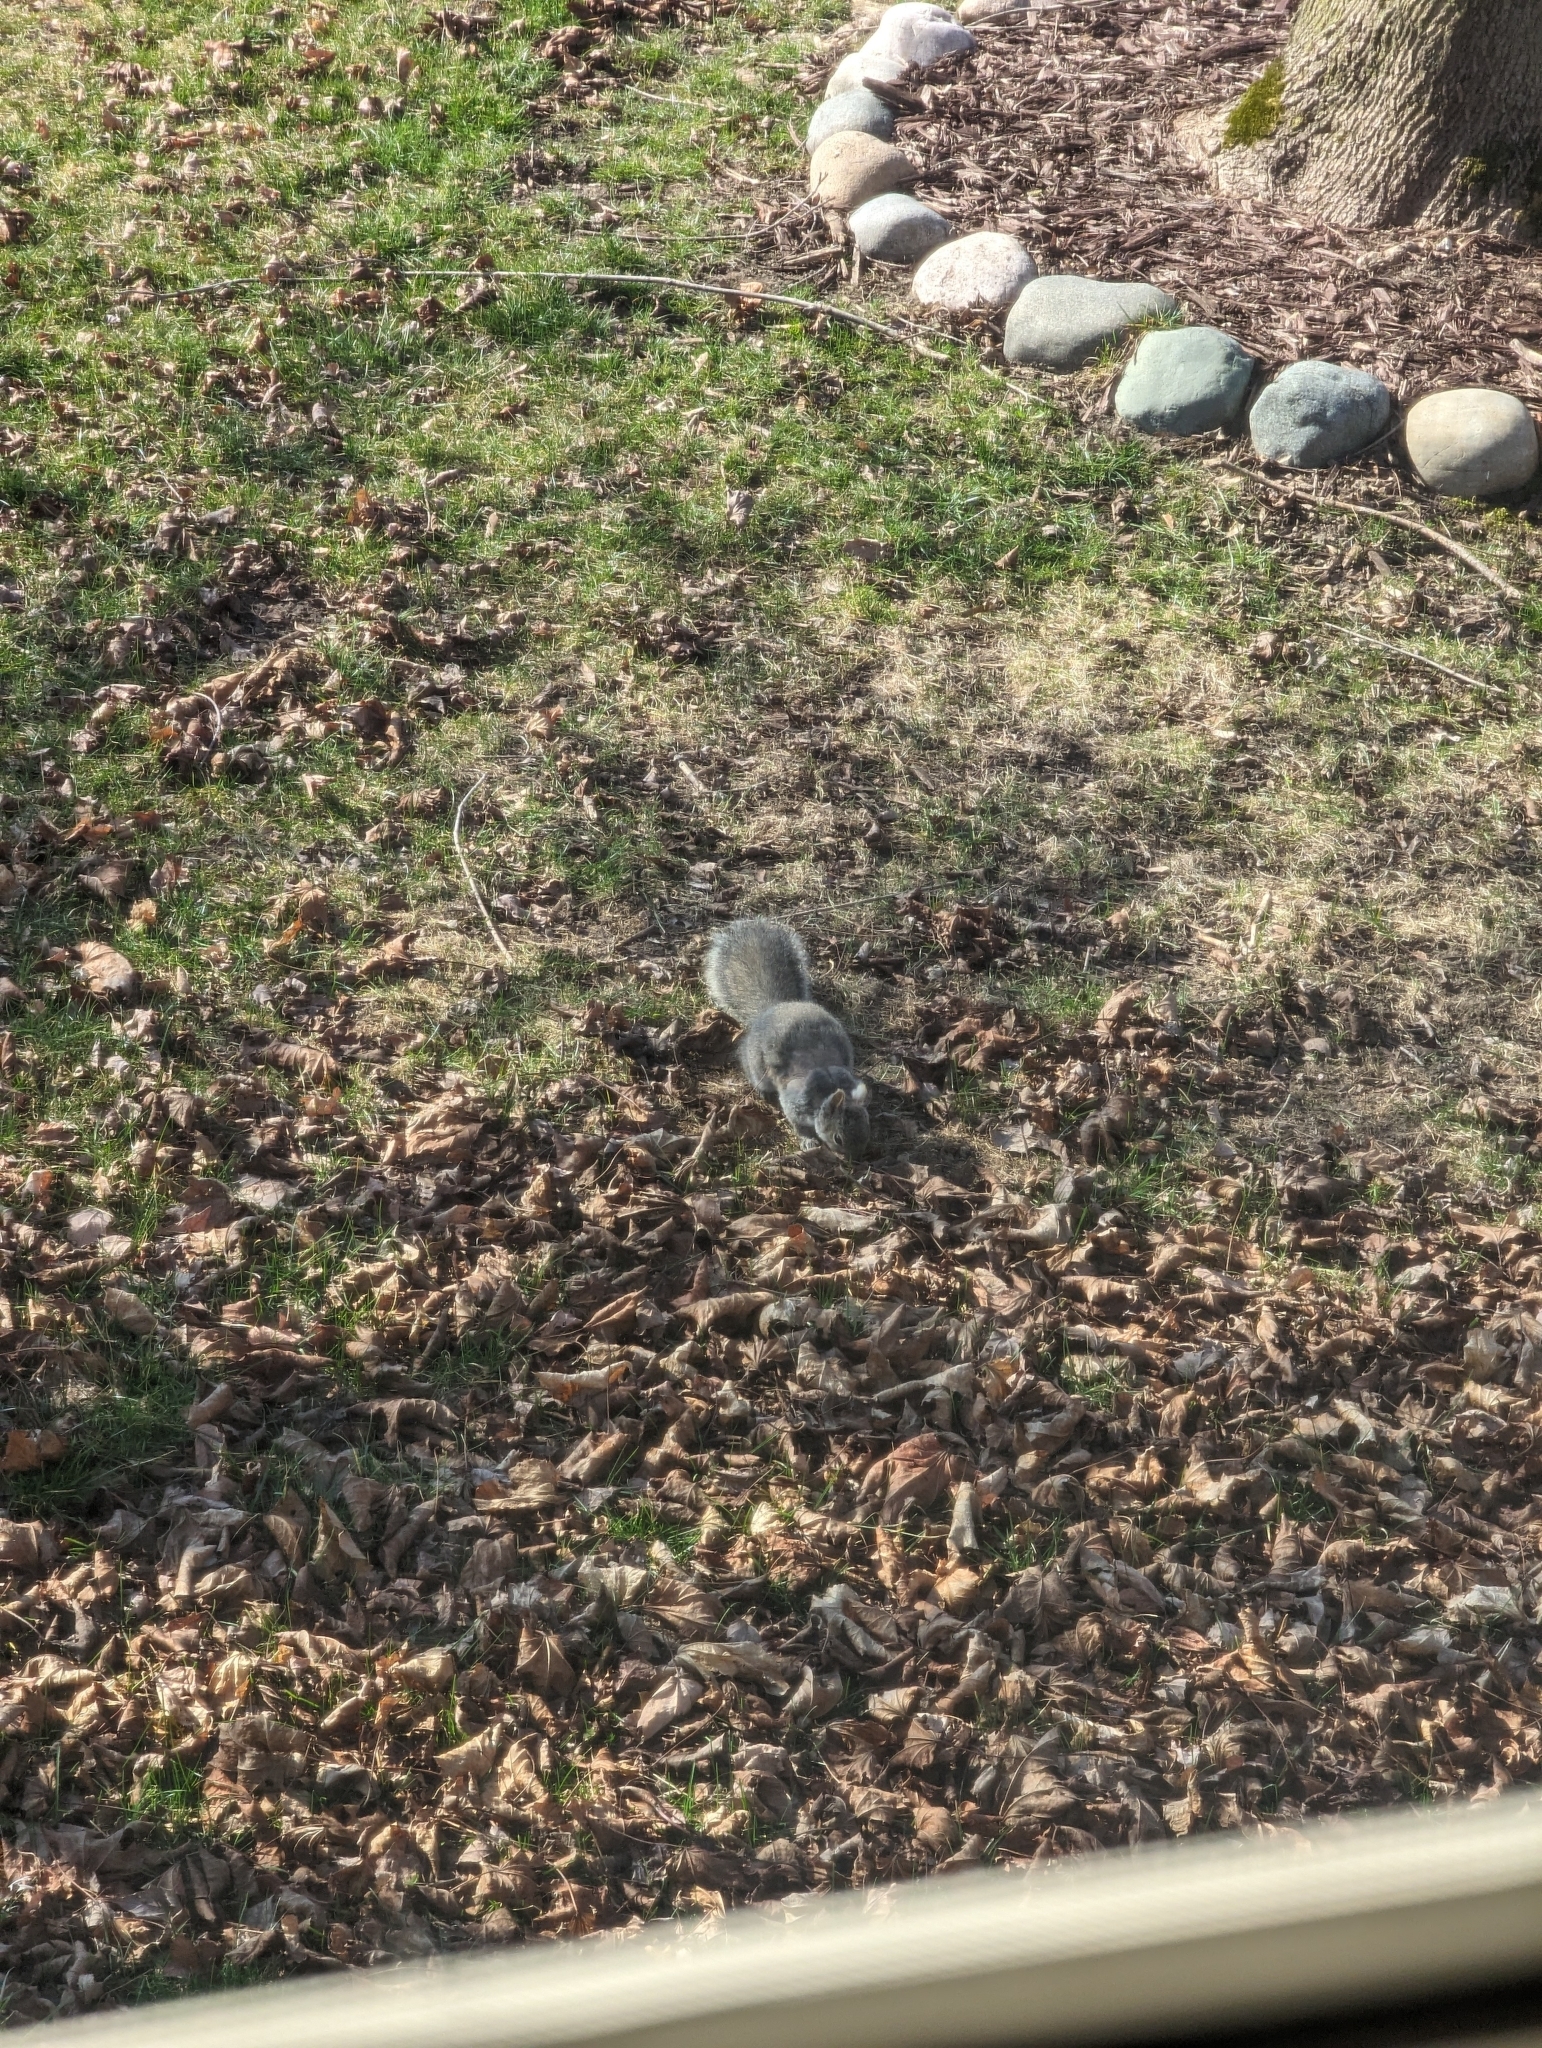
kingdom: Animalia
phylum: Chordata
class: Mammalia
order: Rodentia
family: Sciuridae
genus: Sciurus
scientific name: Sciurus carolinensis
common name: Eastern gray squirrel
